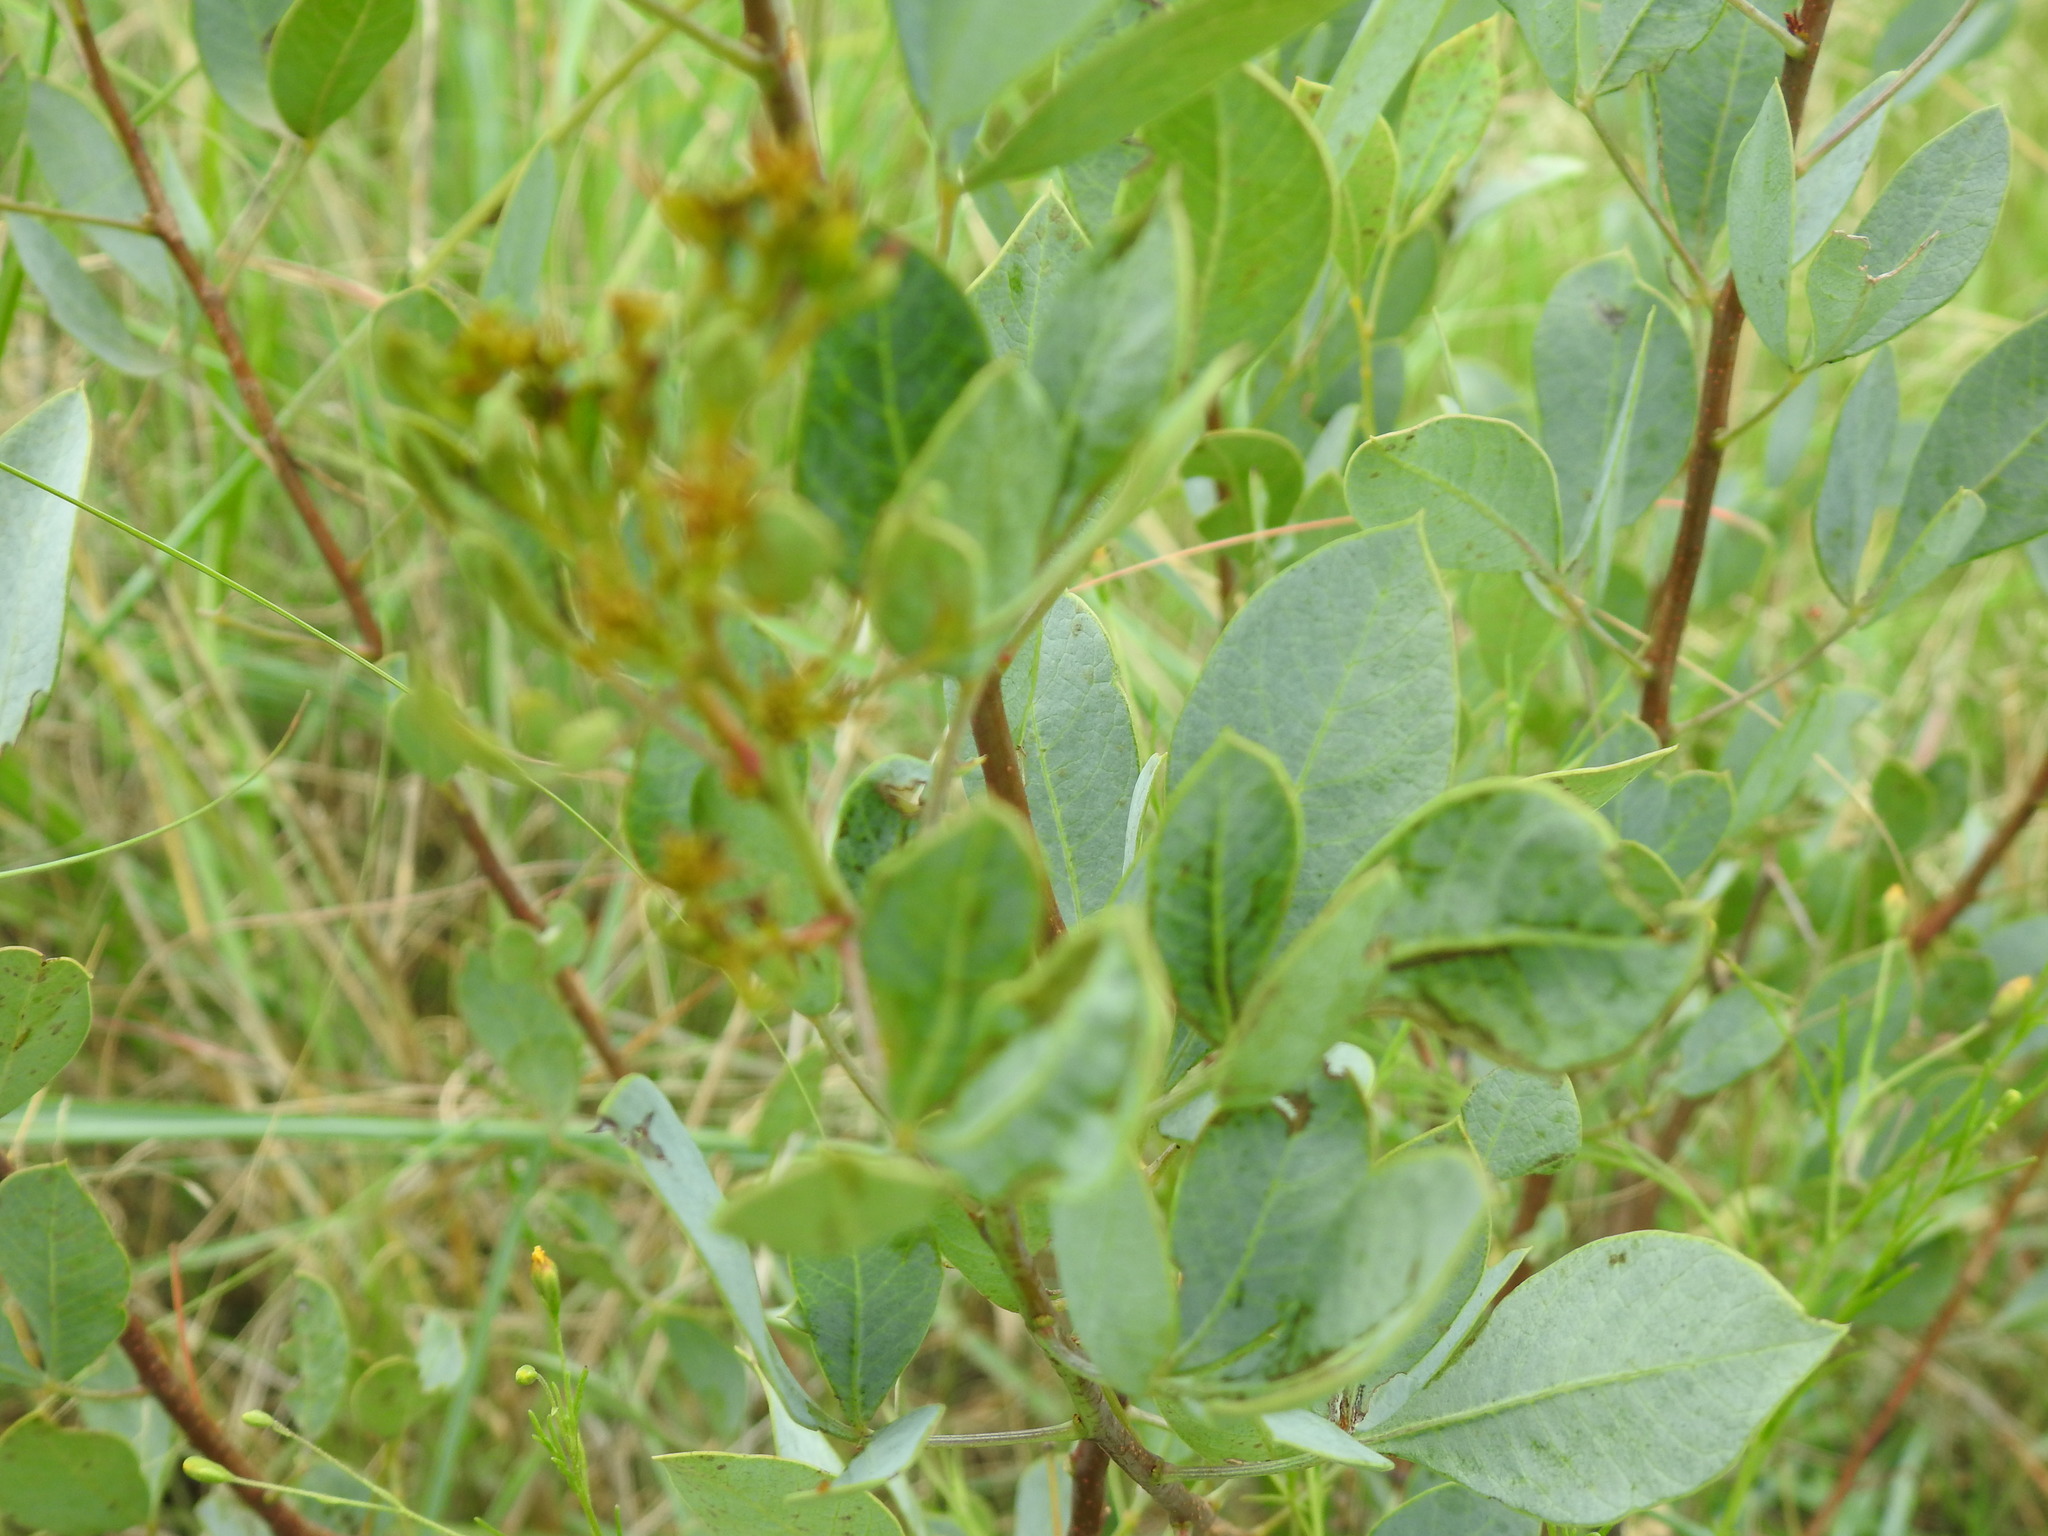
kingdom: Plantae
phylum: Tracheophyta
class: Magnoliopsida
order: Sapindales
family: Anacardiaceae
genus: Searsia
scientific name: Searsia zeyheri
